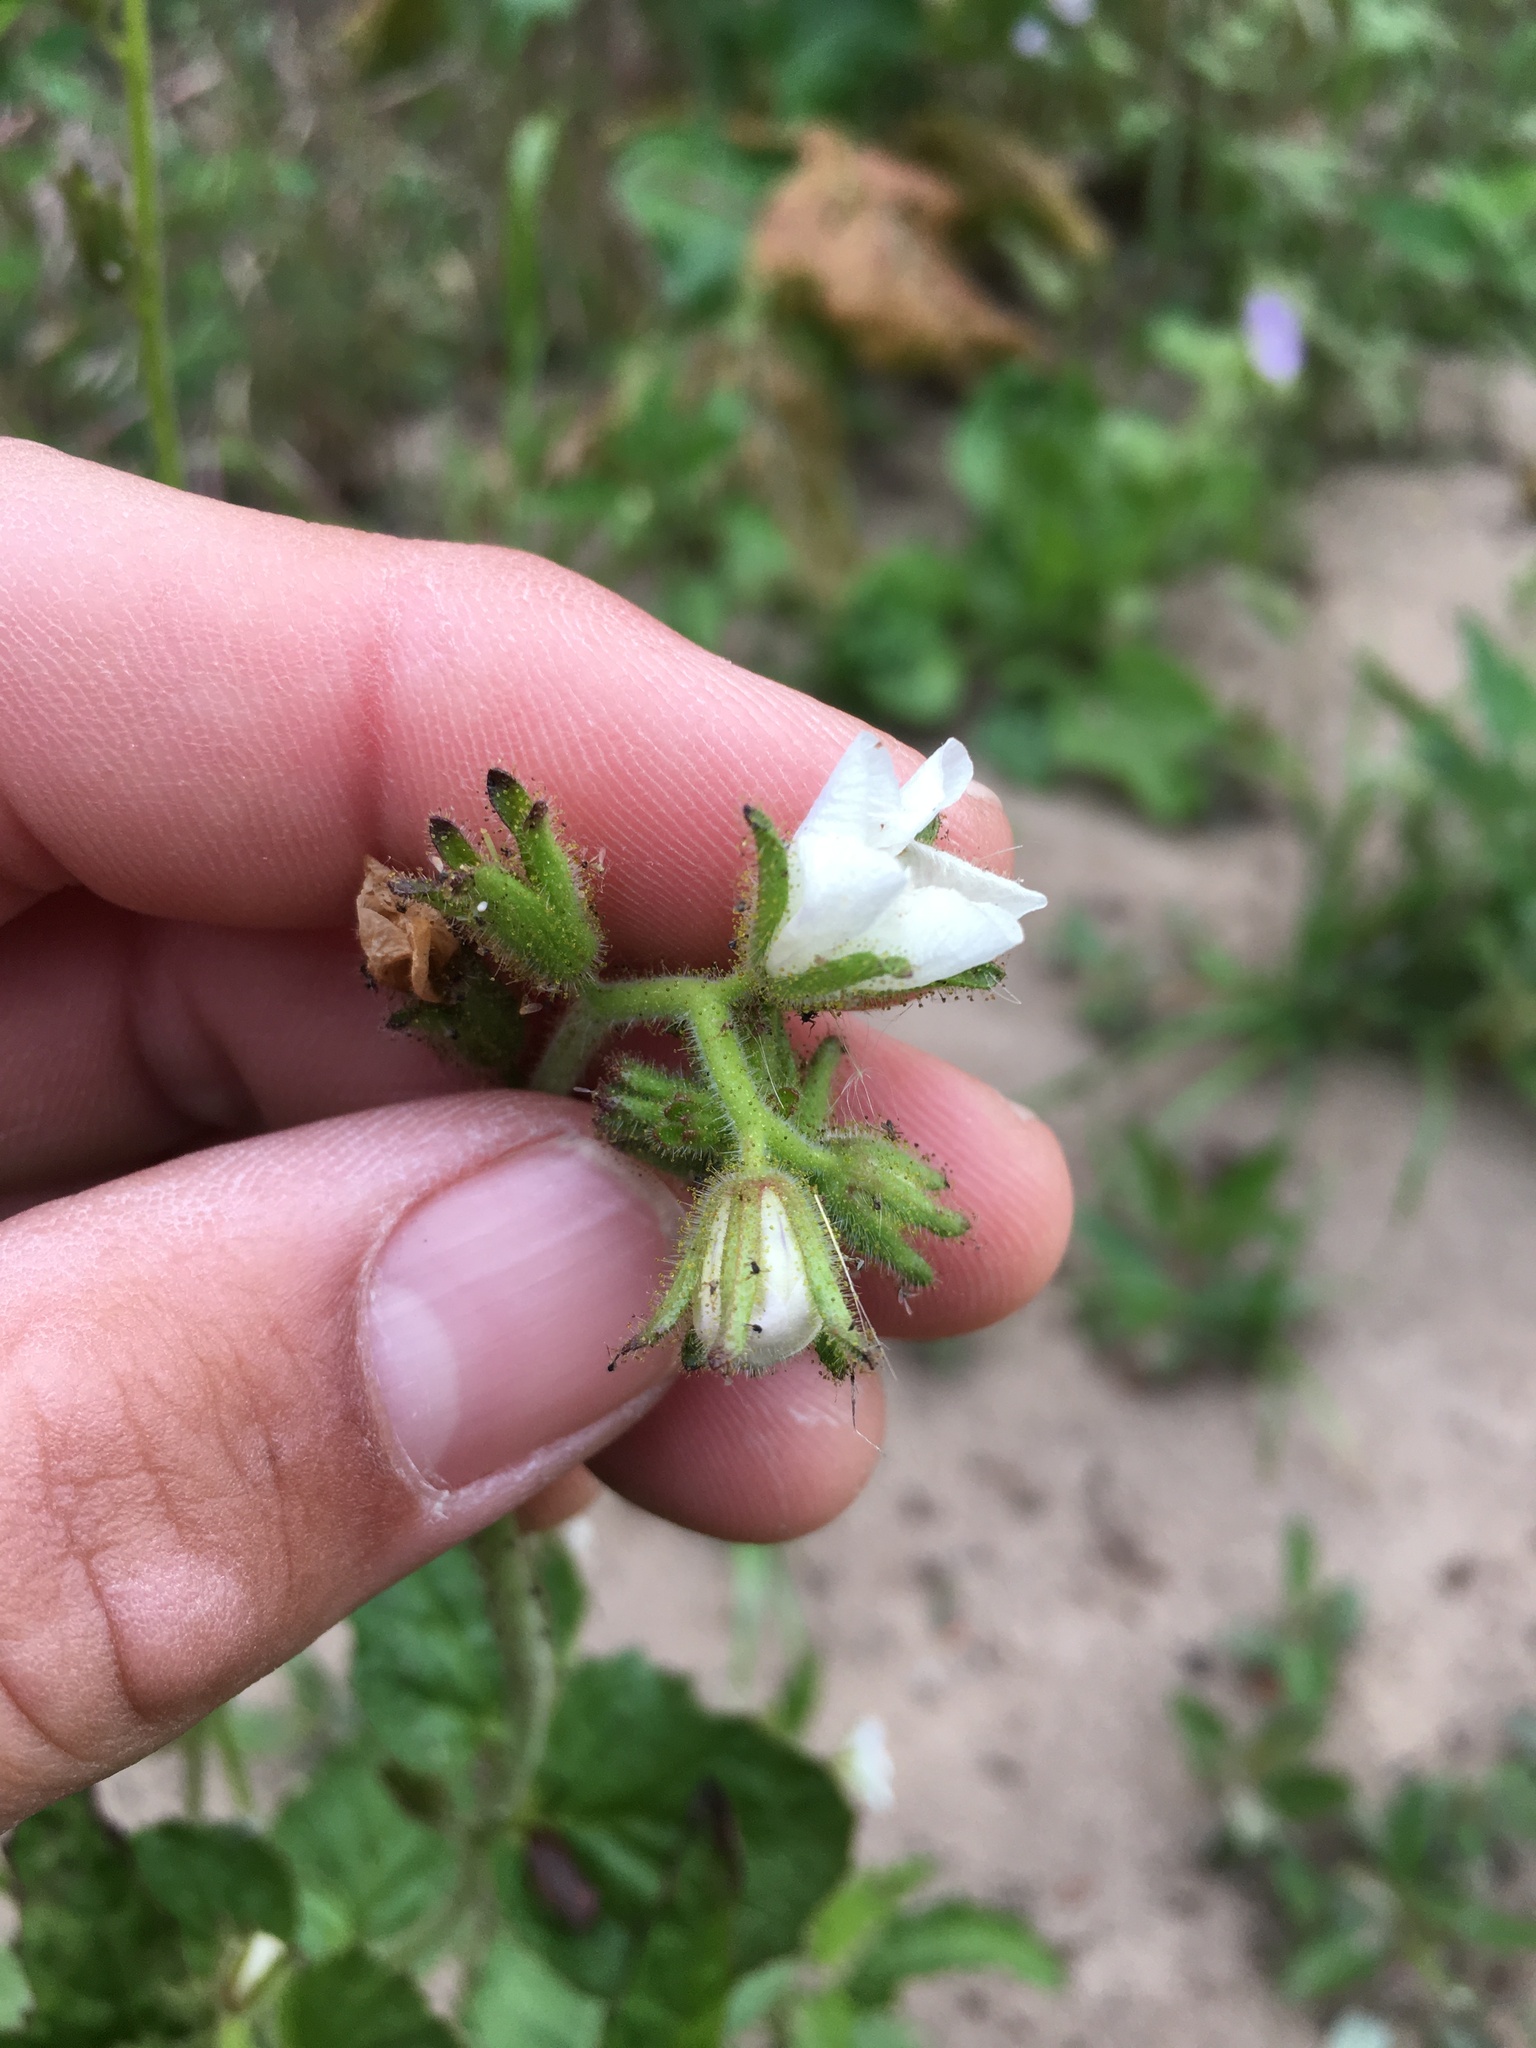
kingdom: Plantae
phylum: Tracheophyta
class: Magnoliopsida
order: Boraginales
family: Hydrophyllaceae
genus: Phacelia
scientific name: Phacelia viscida
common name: Sticky phacelia
